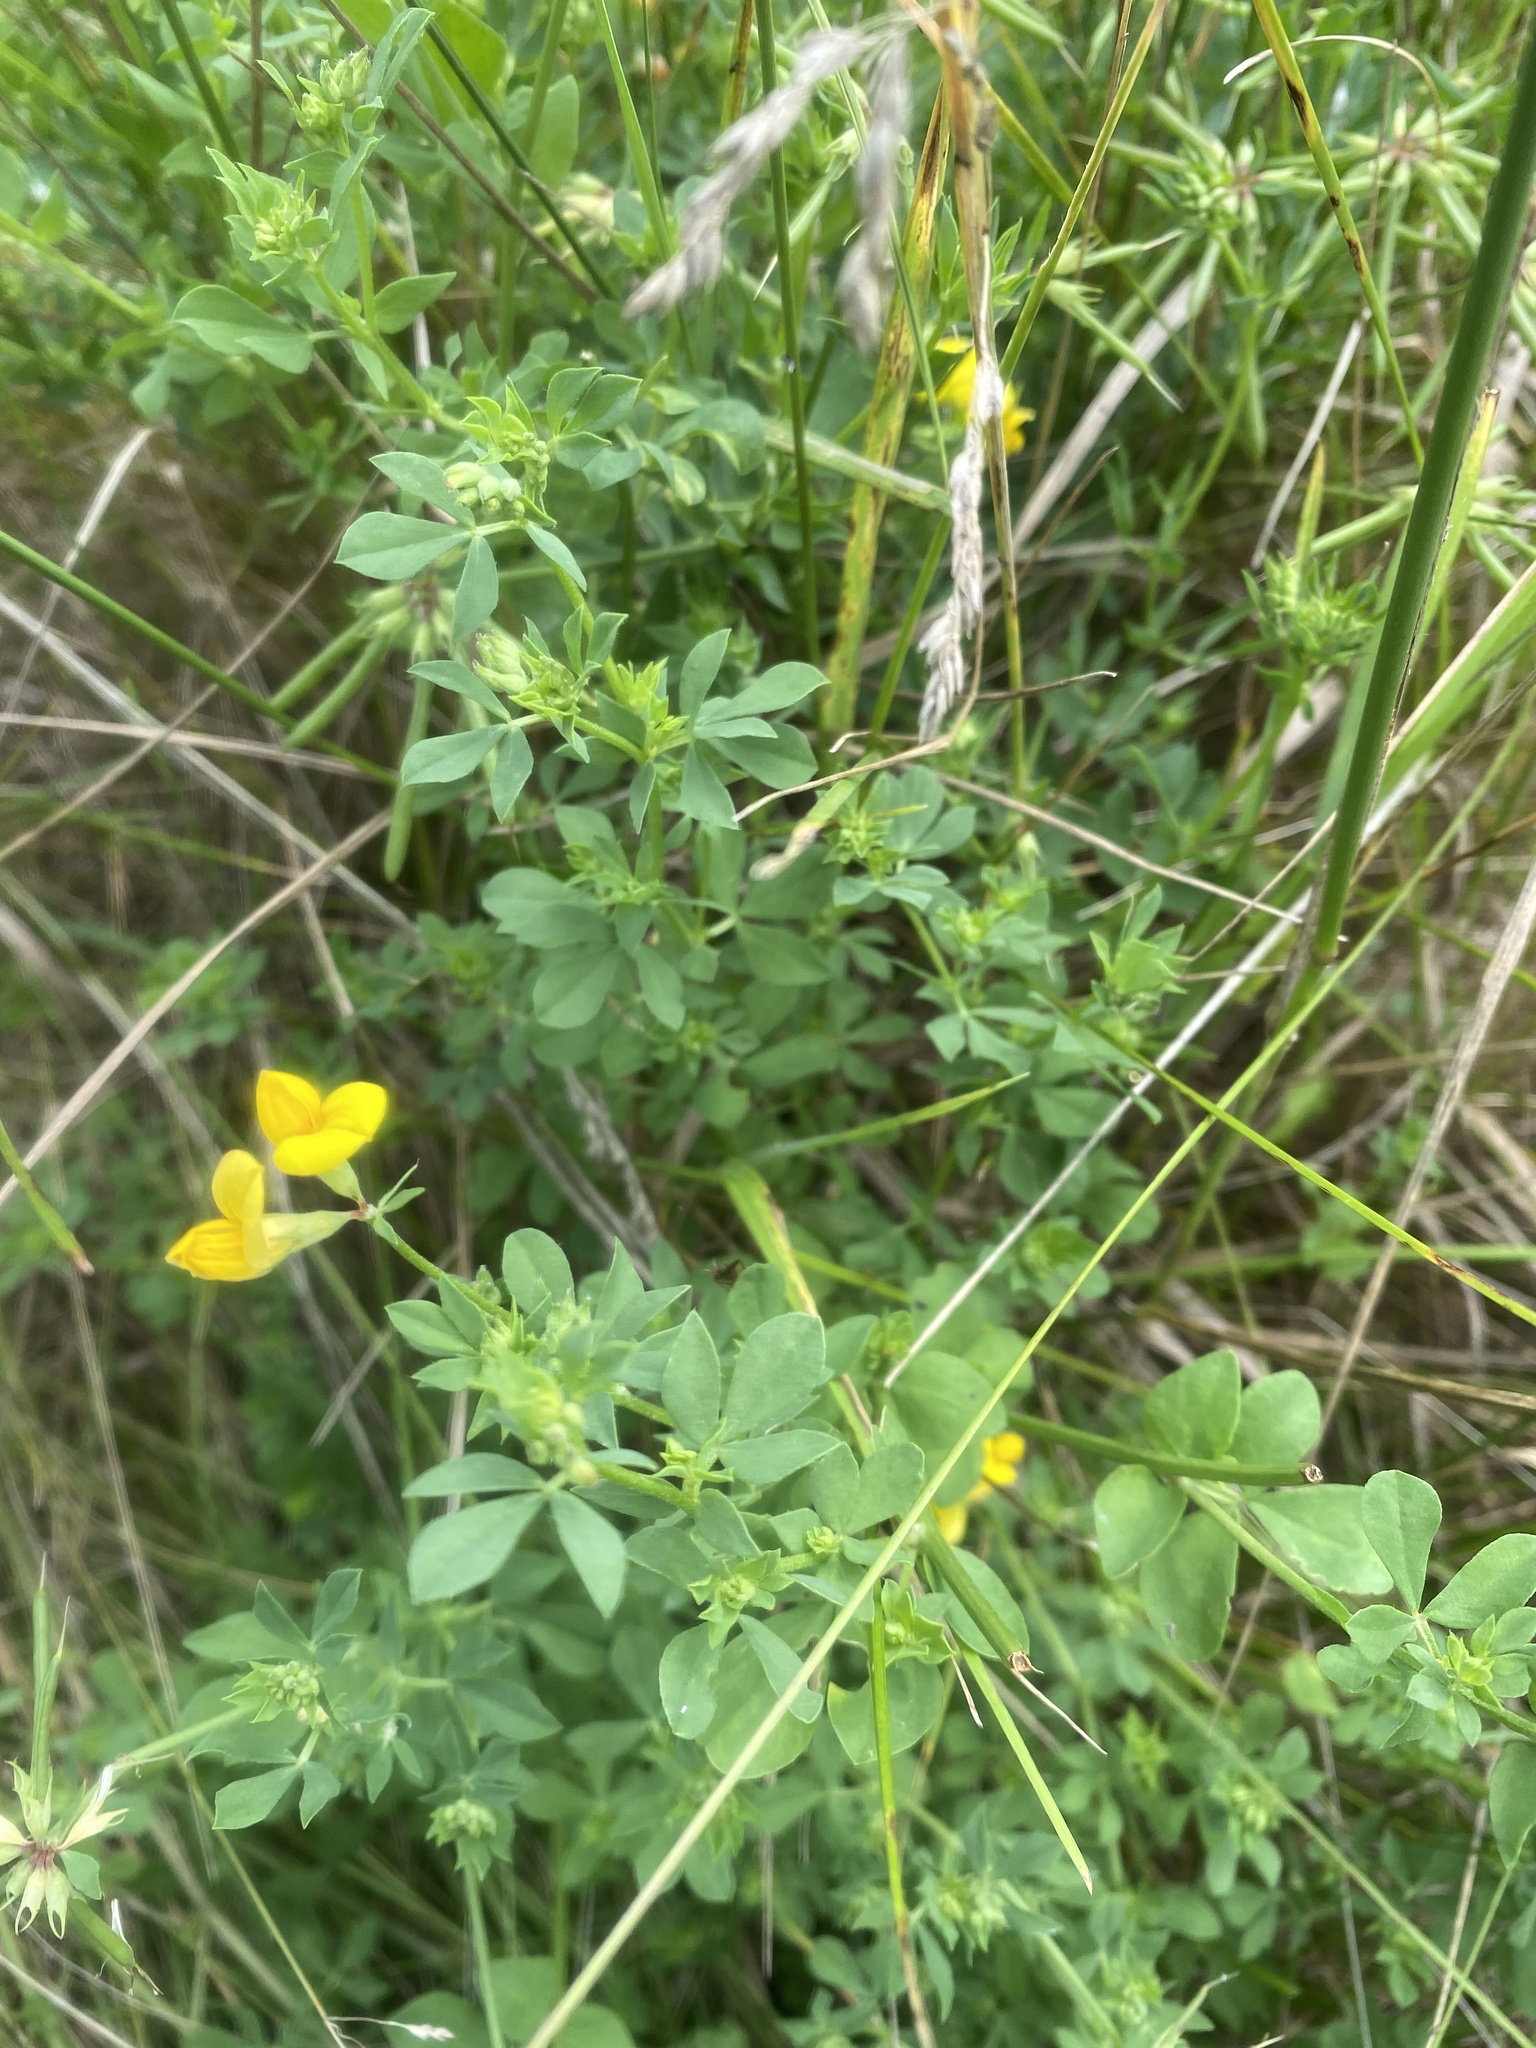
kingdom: Plantae
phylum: Tracheophyta
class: Magnoliopsida
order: Fabales
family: Fabaceae
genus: Lotus
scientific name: Lotus corniculatus
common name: Common bird's-foot-trefoil
